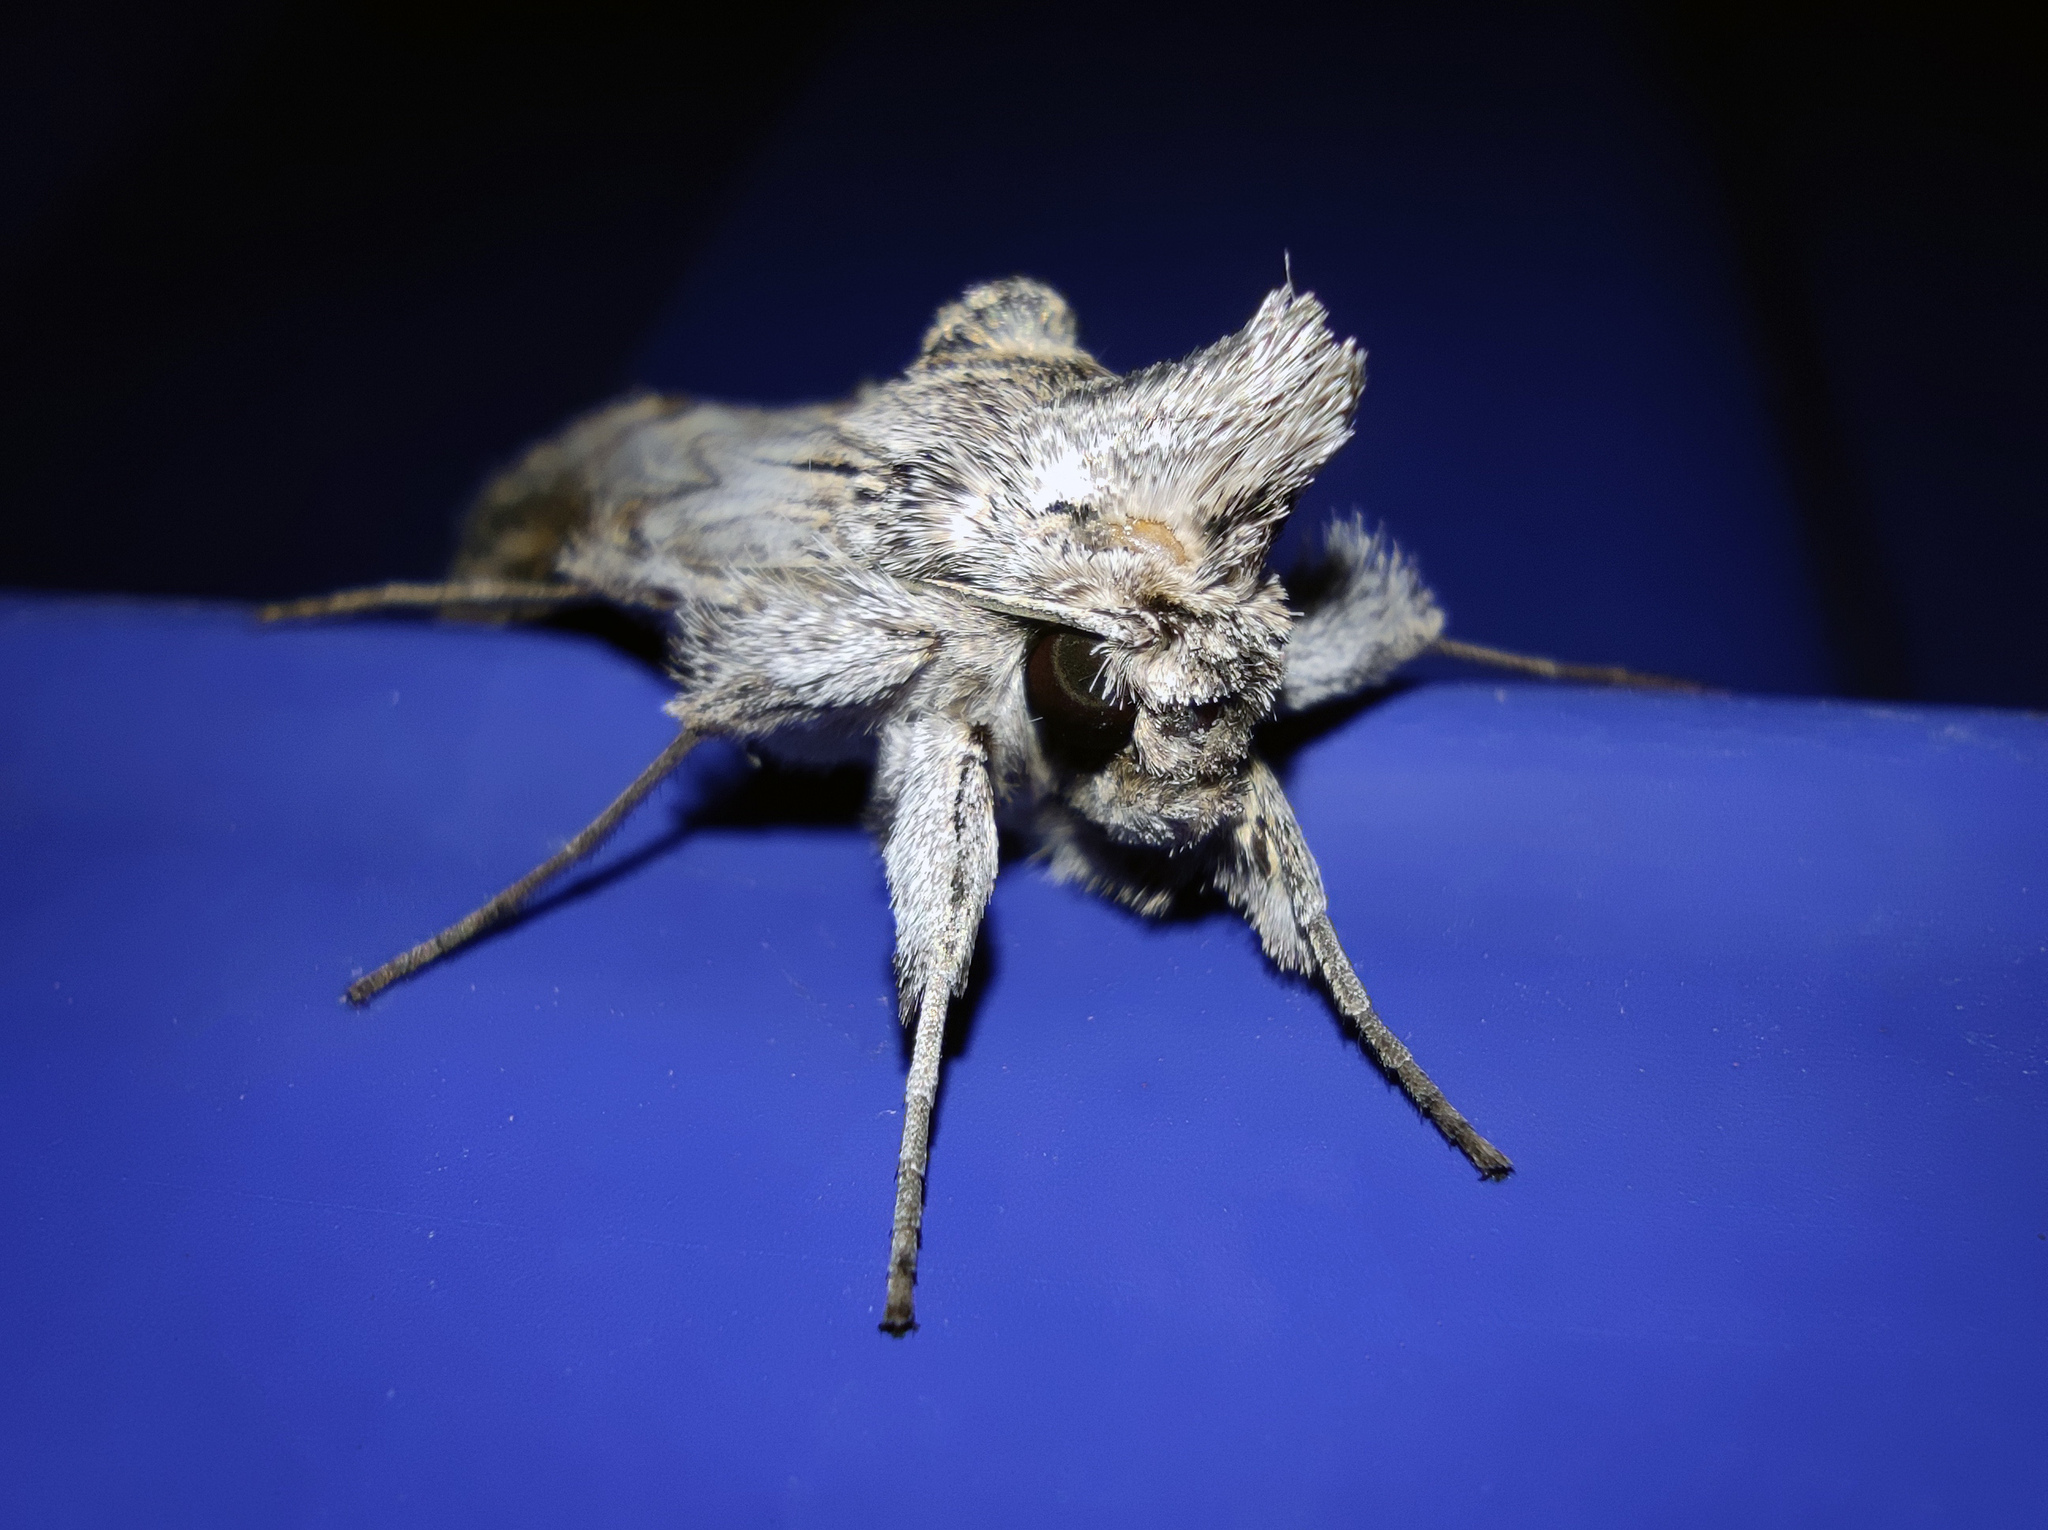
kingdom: Animalia
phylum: Arthropoda
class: Insecta
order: Lepidoptera
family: Noctuidae
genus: Cucullia
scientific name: Cucullia naruenensis
